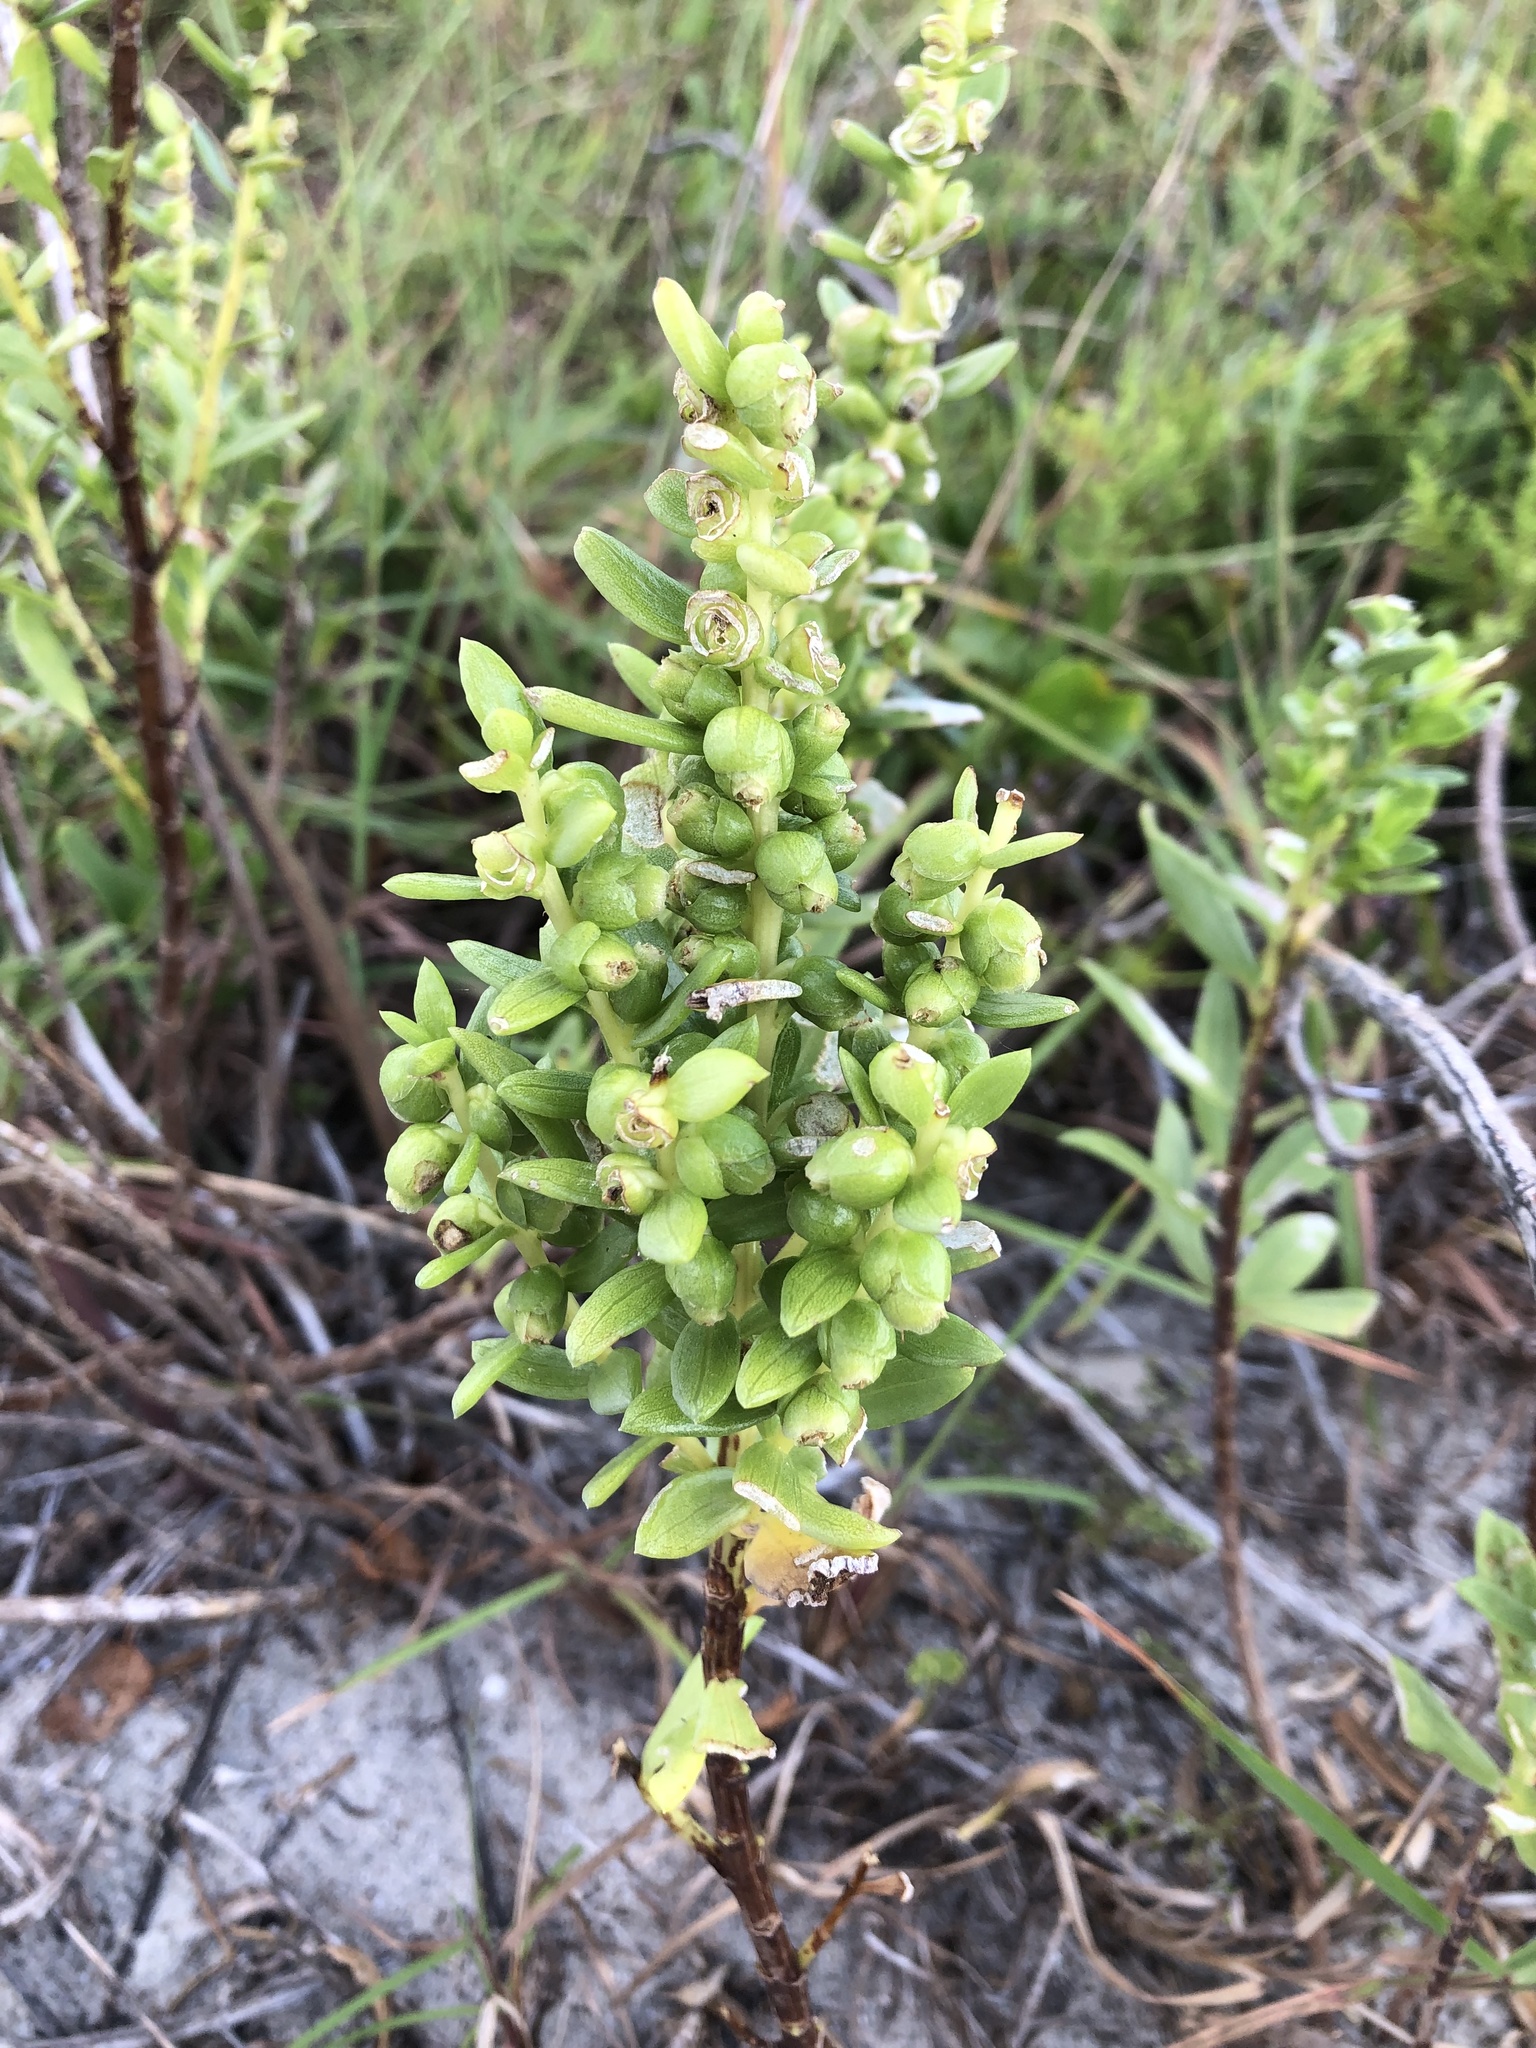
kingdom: Plantae
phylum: Tracheophyta
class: Magnoliopsida
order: Asterales
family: Asteraceae
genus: Iva
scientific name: Iva imbricata
